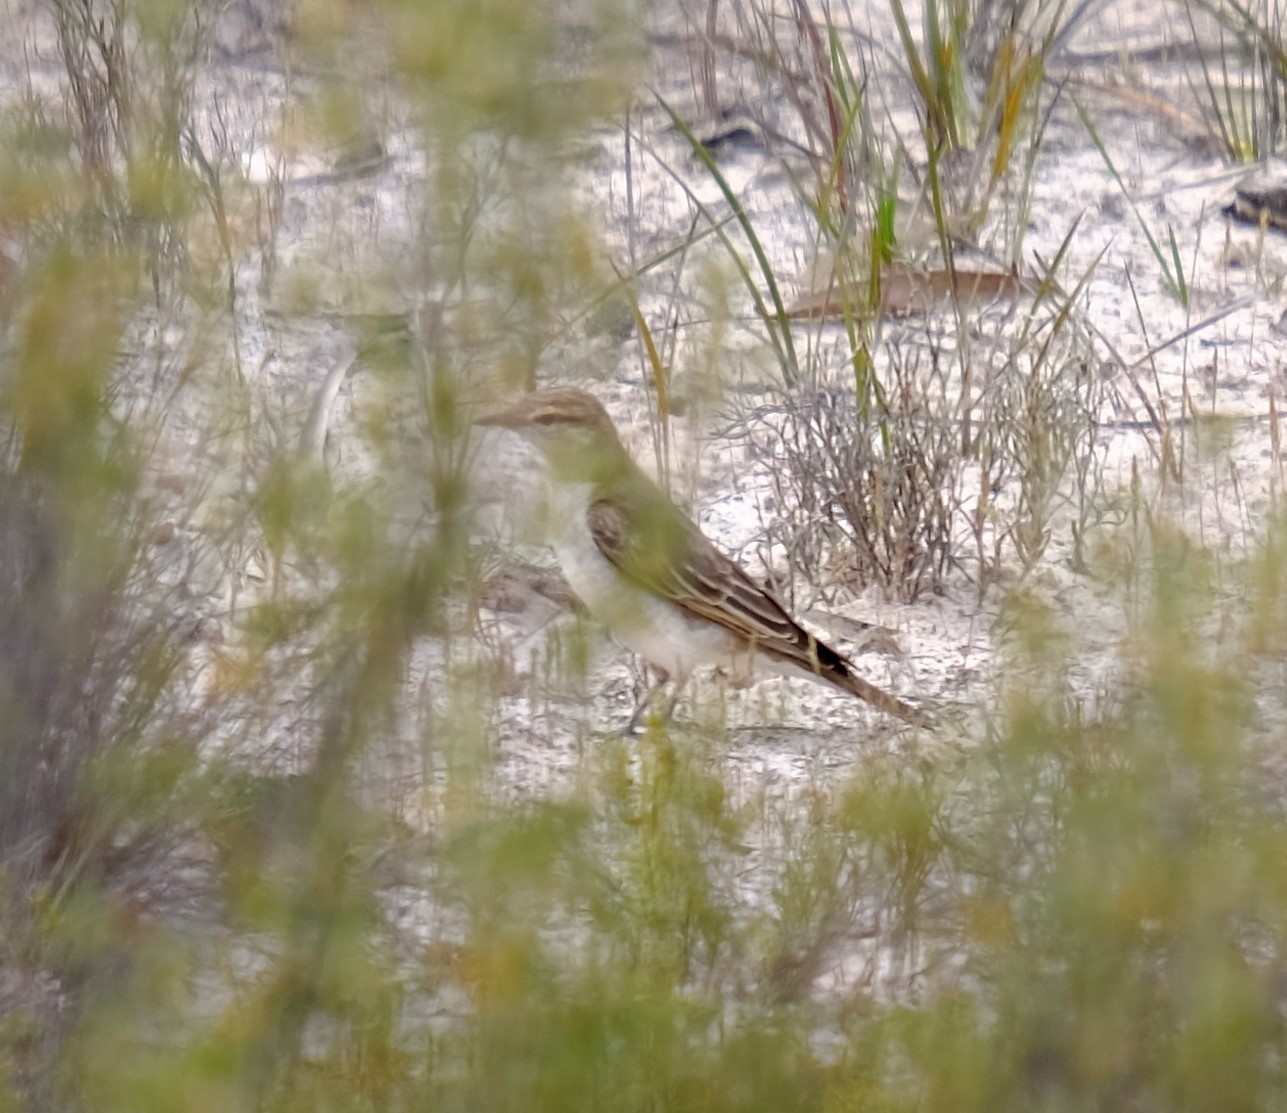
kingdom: Animalia
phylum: Chordata
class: Aves
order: Passeriformes
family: Campephagidae
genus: Lalage
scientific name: Lalage tricolor
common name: White-winged triller
